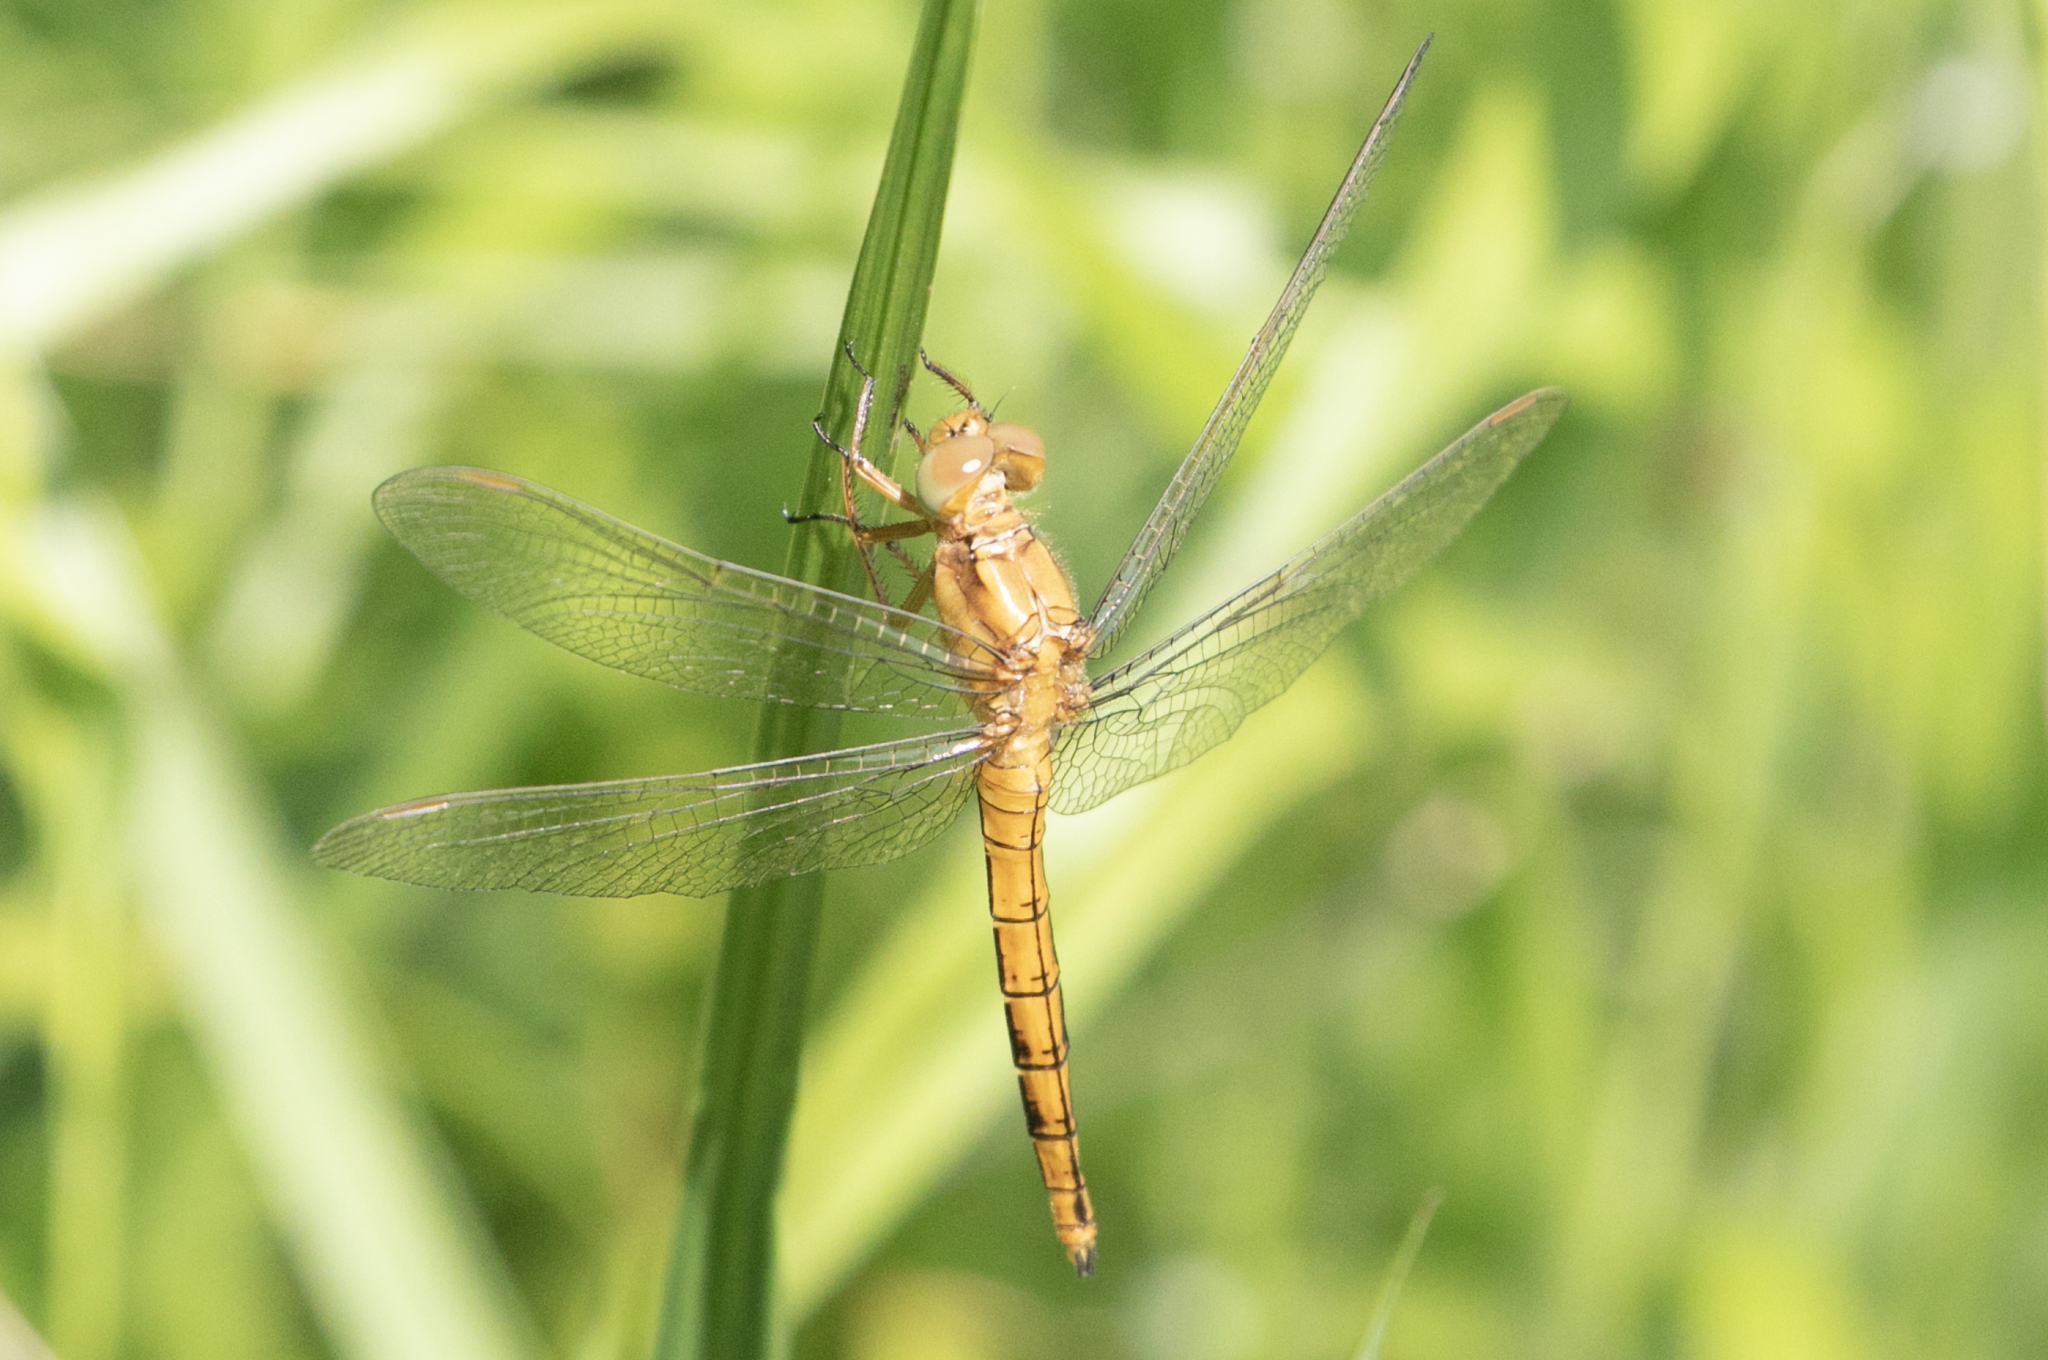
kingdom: Animalia
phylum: Arthropoda
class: Insecta
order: Odonata
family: Libellulidae
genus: Orthetrum
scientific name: Orthetrum coerulescens
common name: Keeled skimmer
